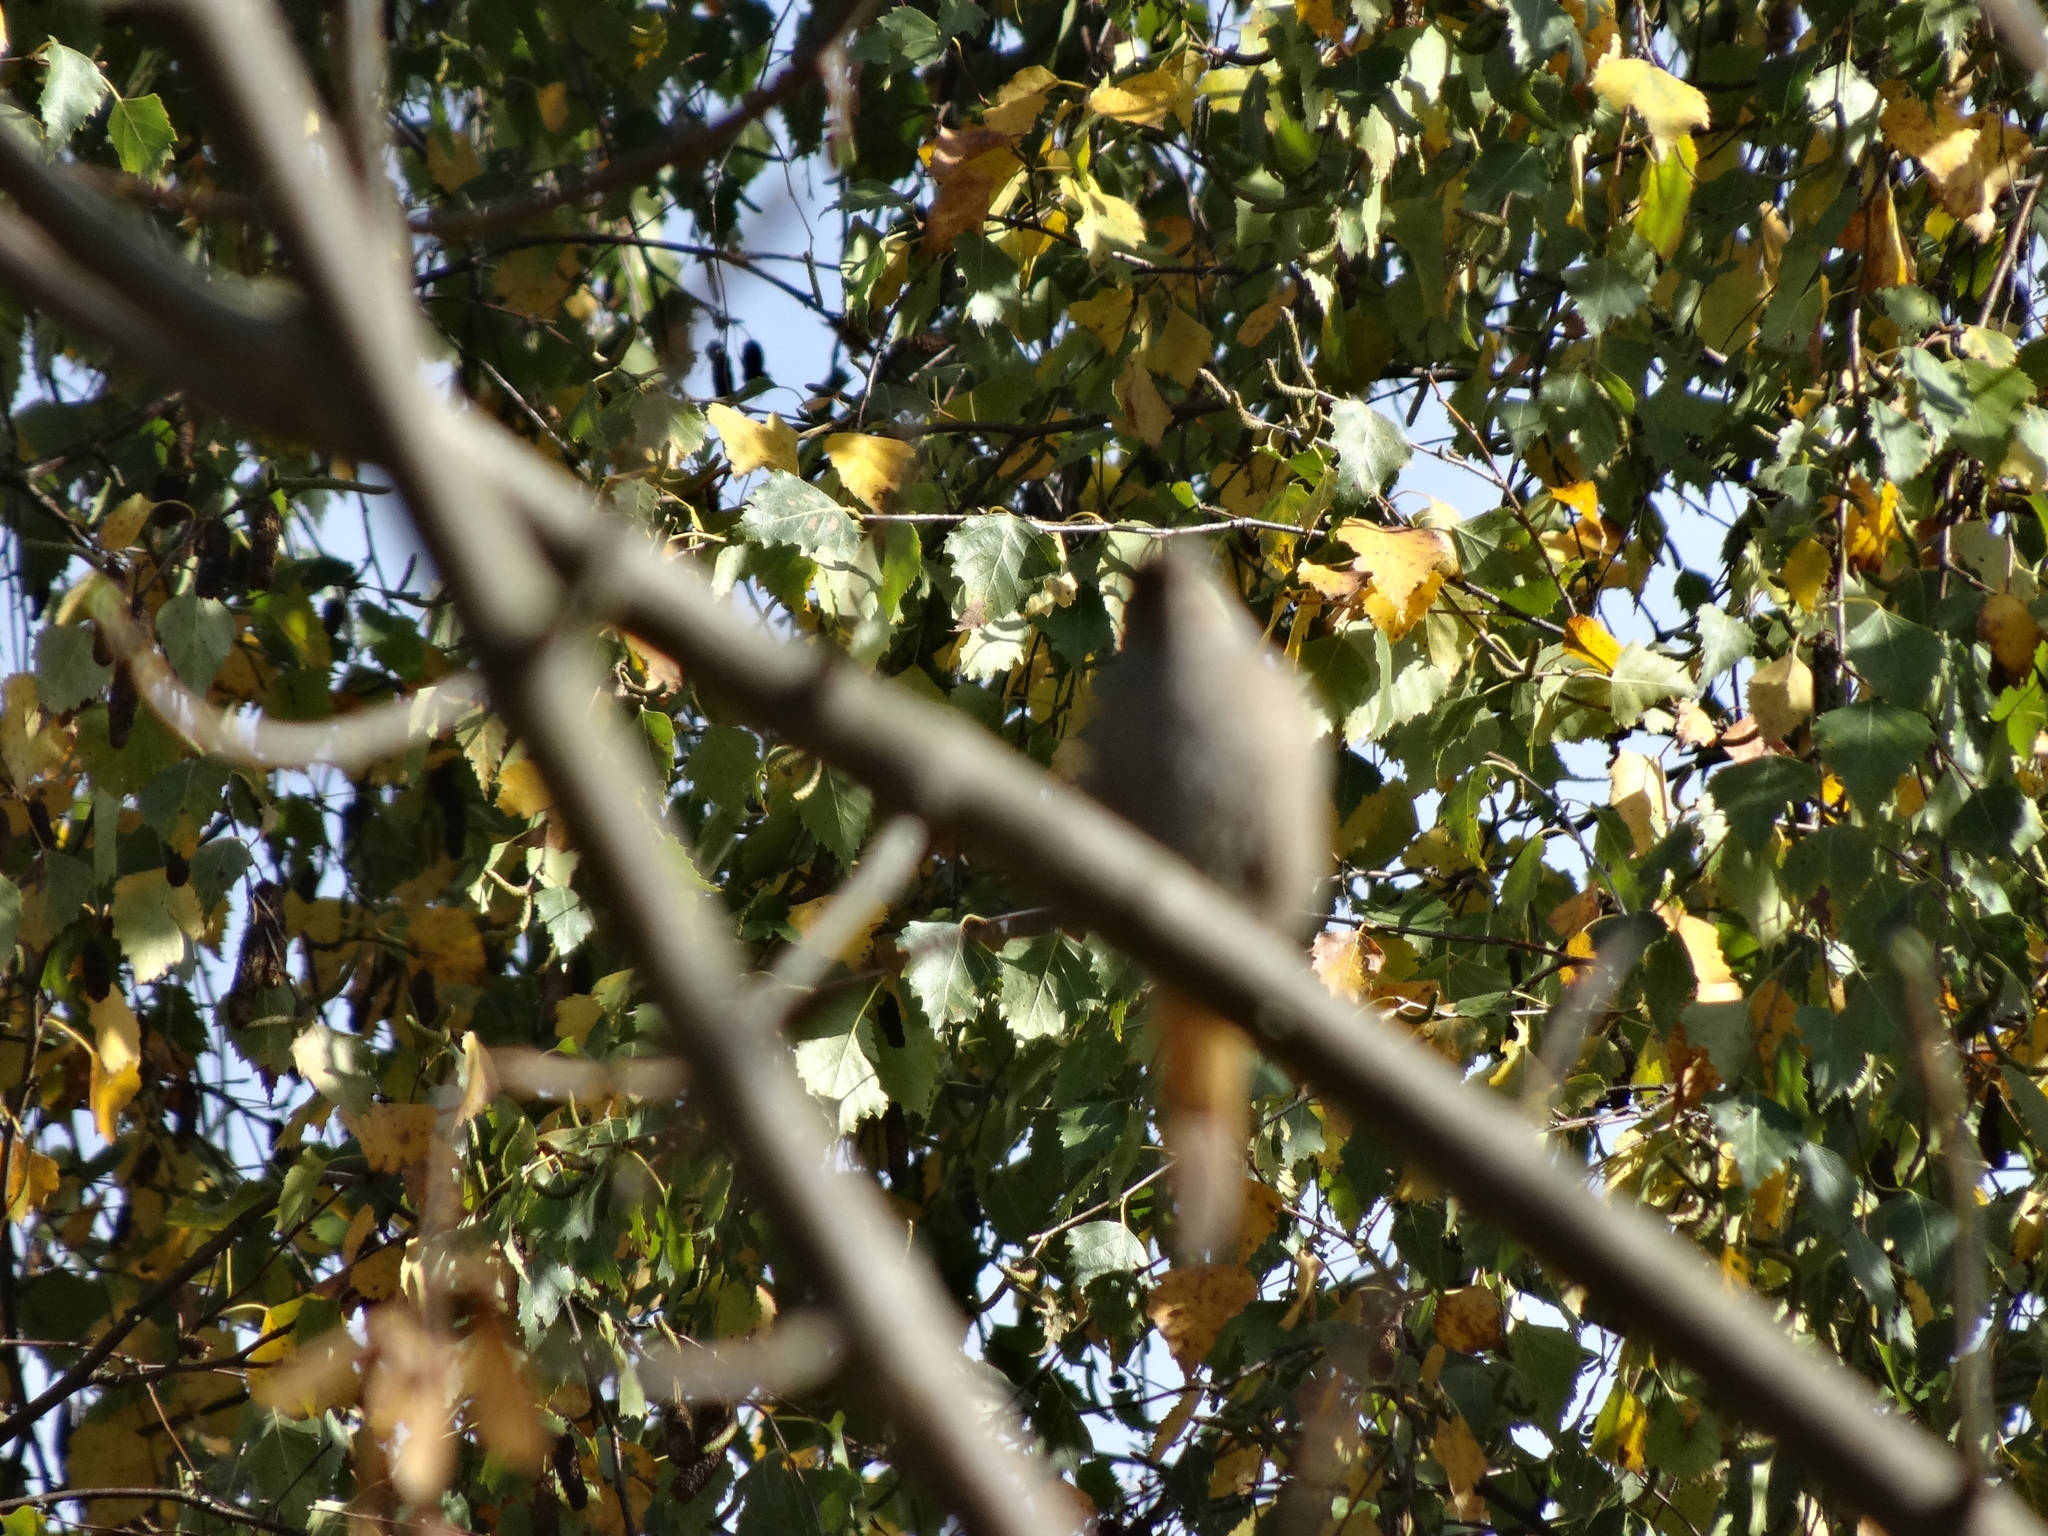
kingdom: Animalia
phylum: Chordata
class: Aves
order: Passeriformes
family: Muscicapidae
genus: Phoenicurus
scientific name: Phoenicurus ochruros
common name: Black redstart
